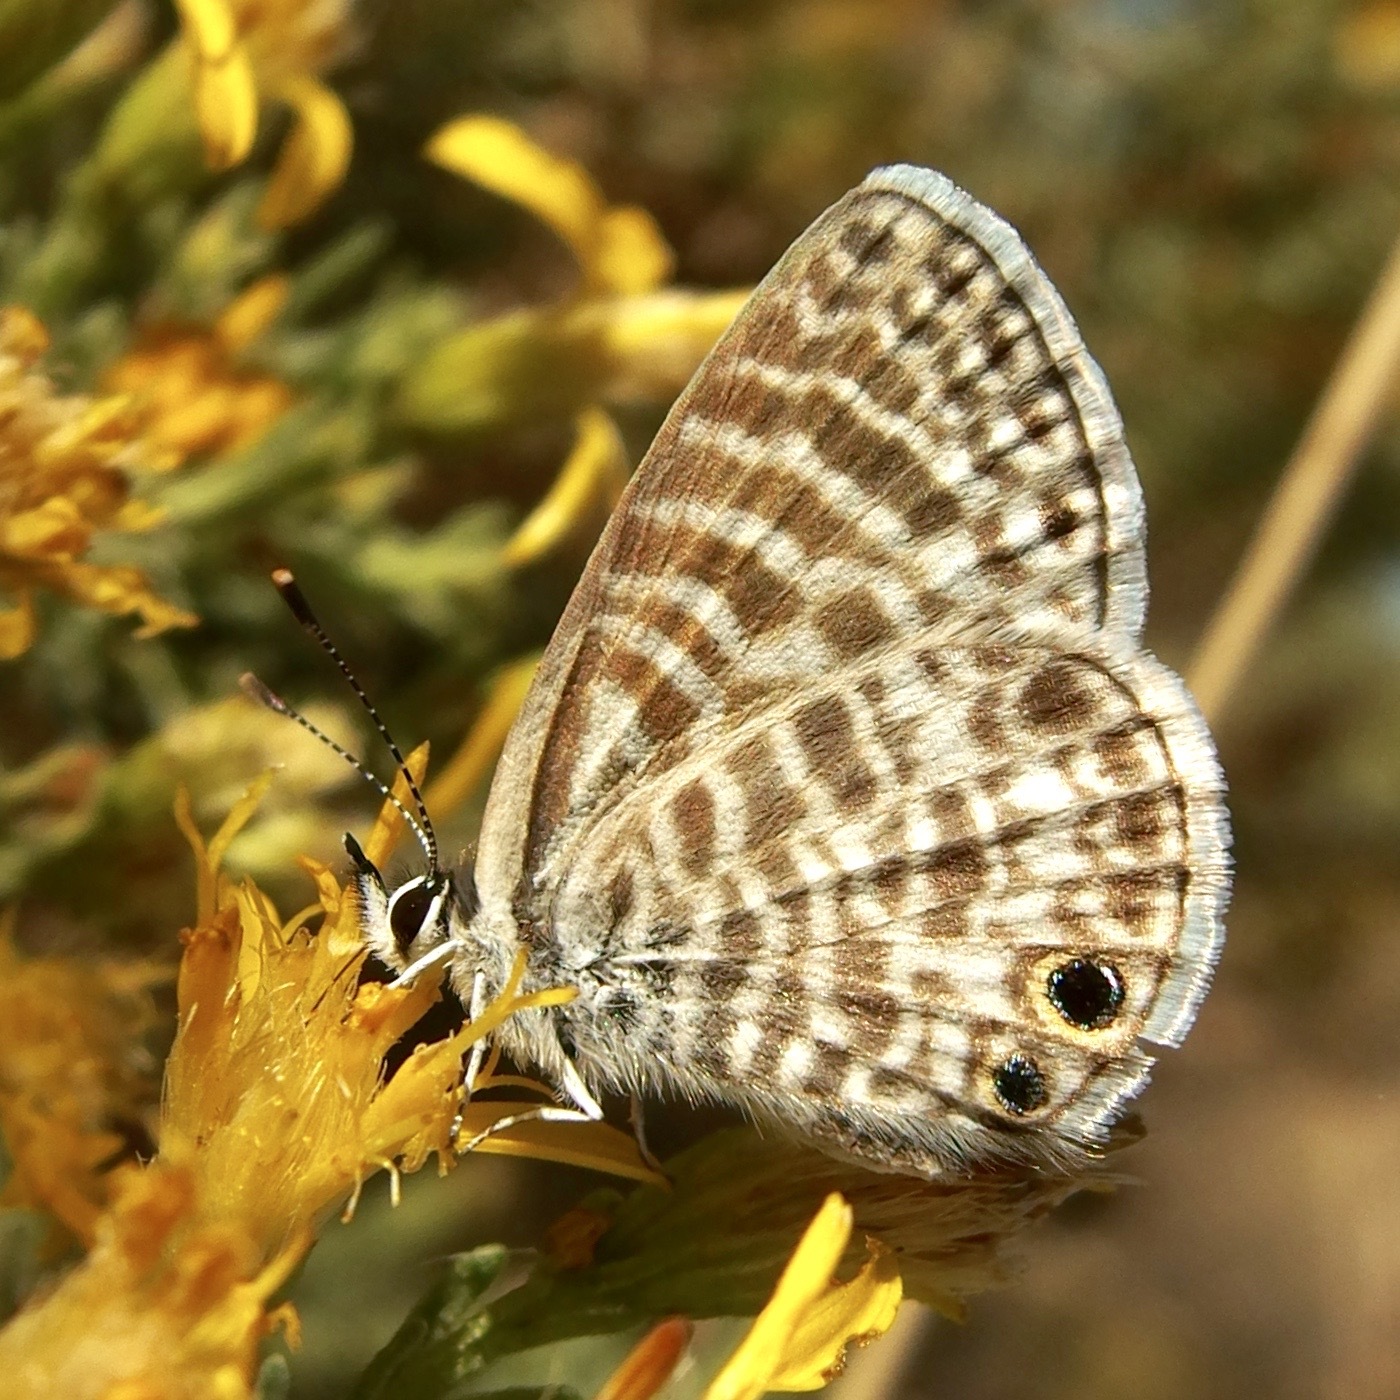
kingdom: Animalia
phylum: Arthropoda
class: Insecta
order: Lepidoptera
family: Lycaenidae
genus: Leptotes
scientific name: Leptotes marina
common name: Marine blue
